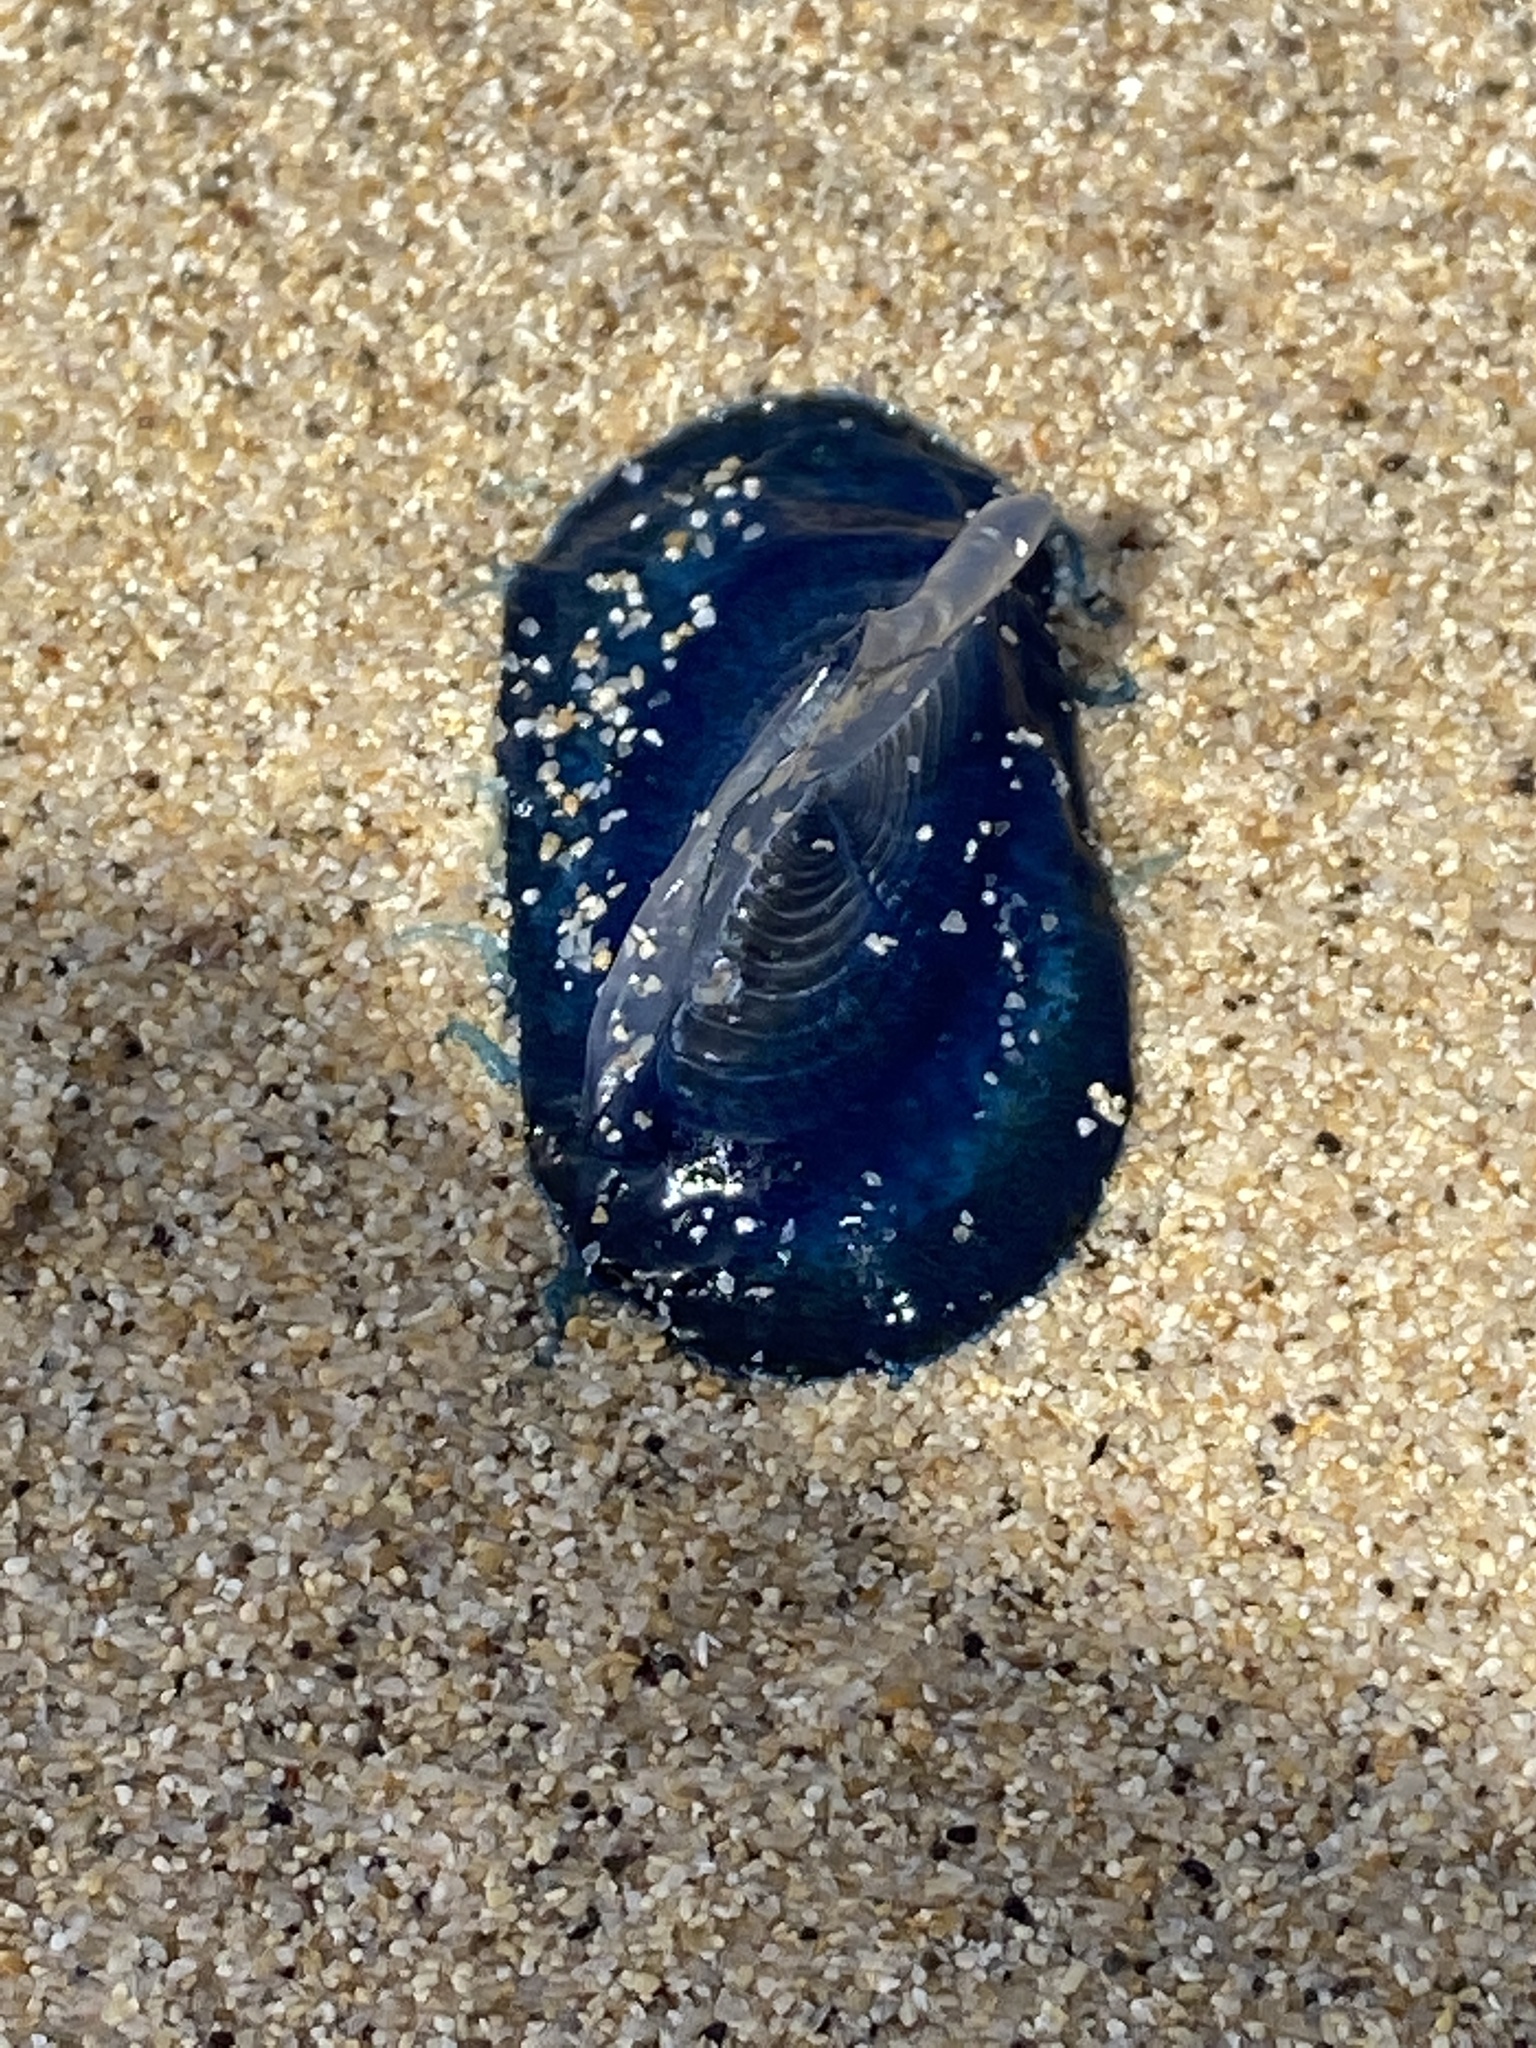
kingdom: Animalia
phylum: Cnidaria
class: Hydrozoa
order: Anthoathecata
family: Porpitidae
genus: Velella
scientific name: Velella velella
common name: By-the-wind-sailor
